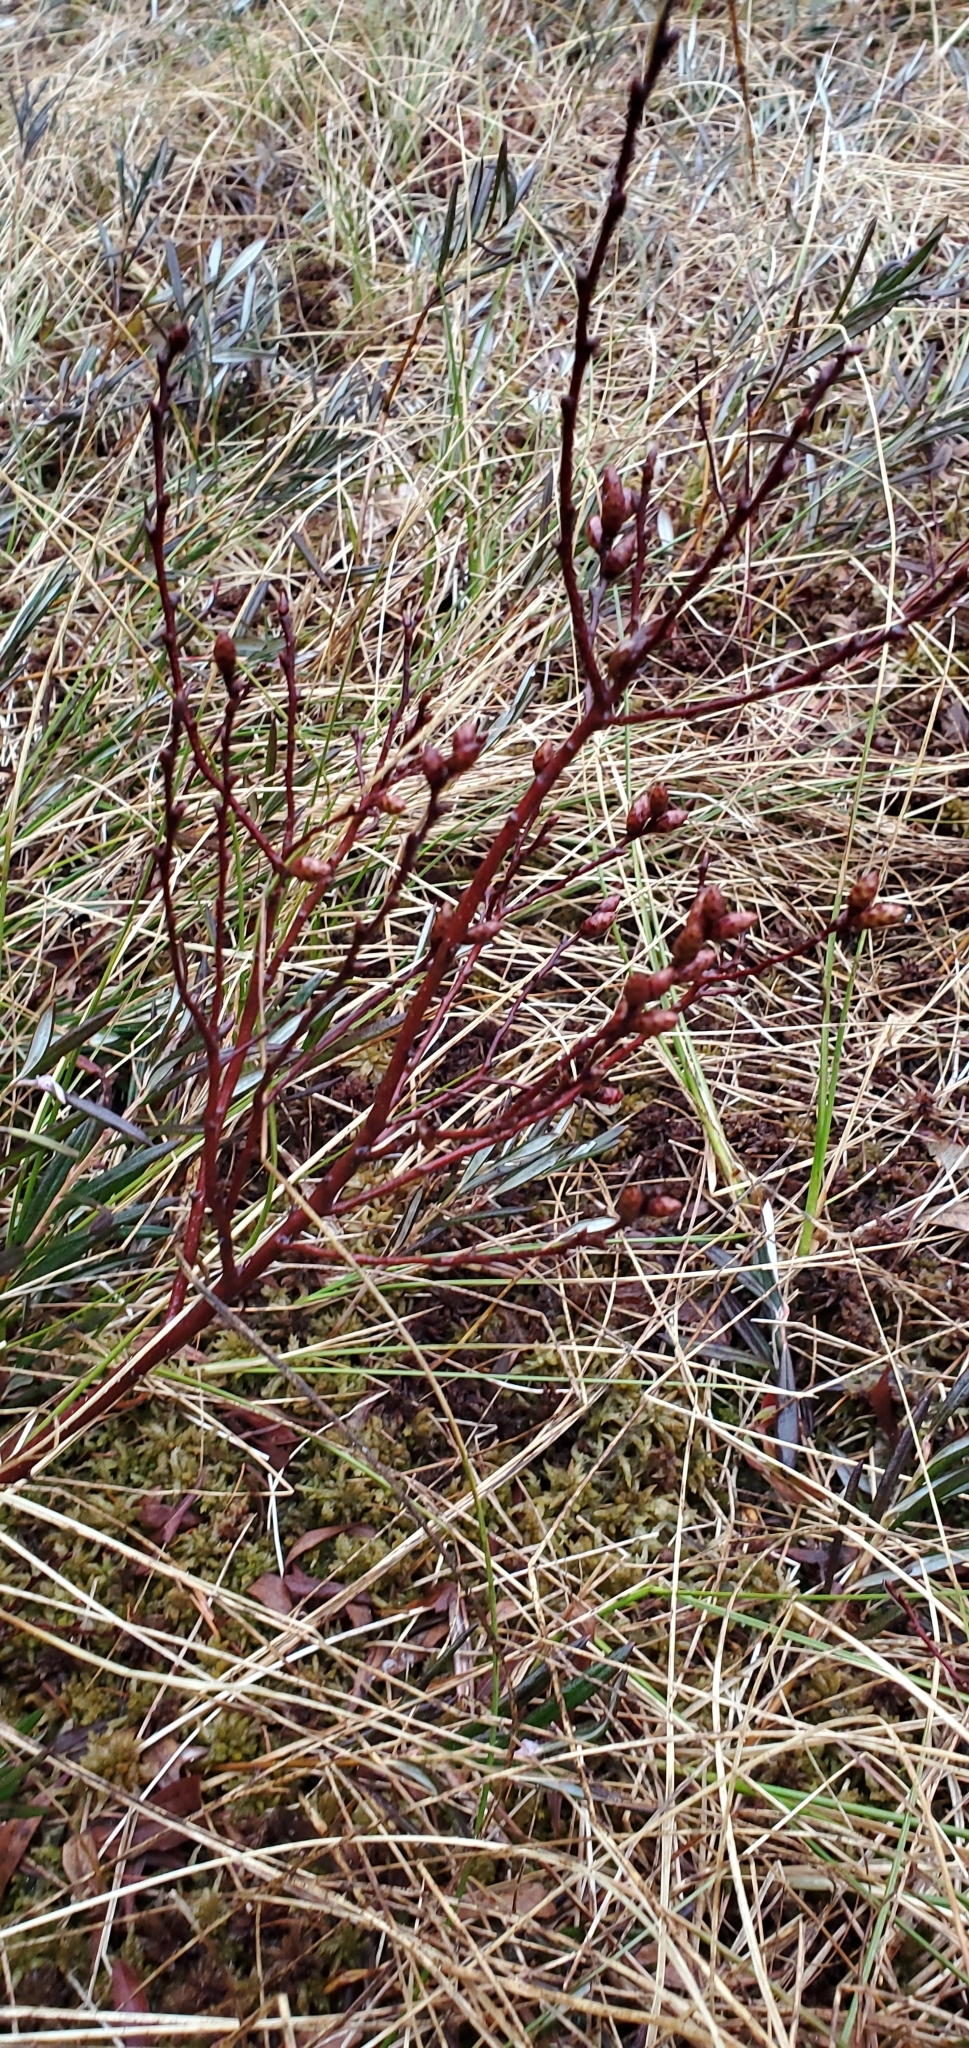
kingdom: Plantae
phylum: Tracheophyta
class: Magnoliopsida
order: Fagales
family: Myricaceae
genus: Myrica
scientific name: Myrica gale
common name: Sweet gale
